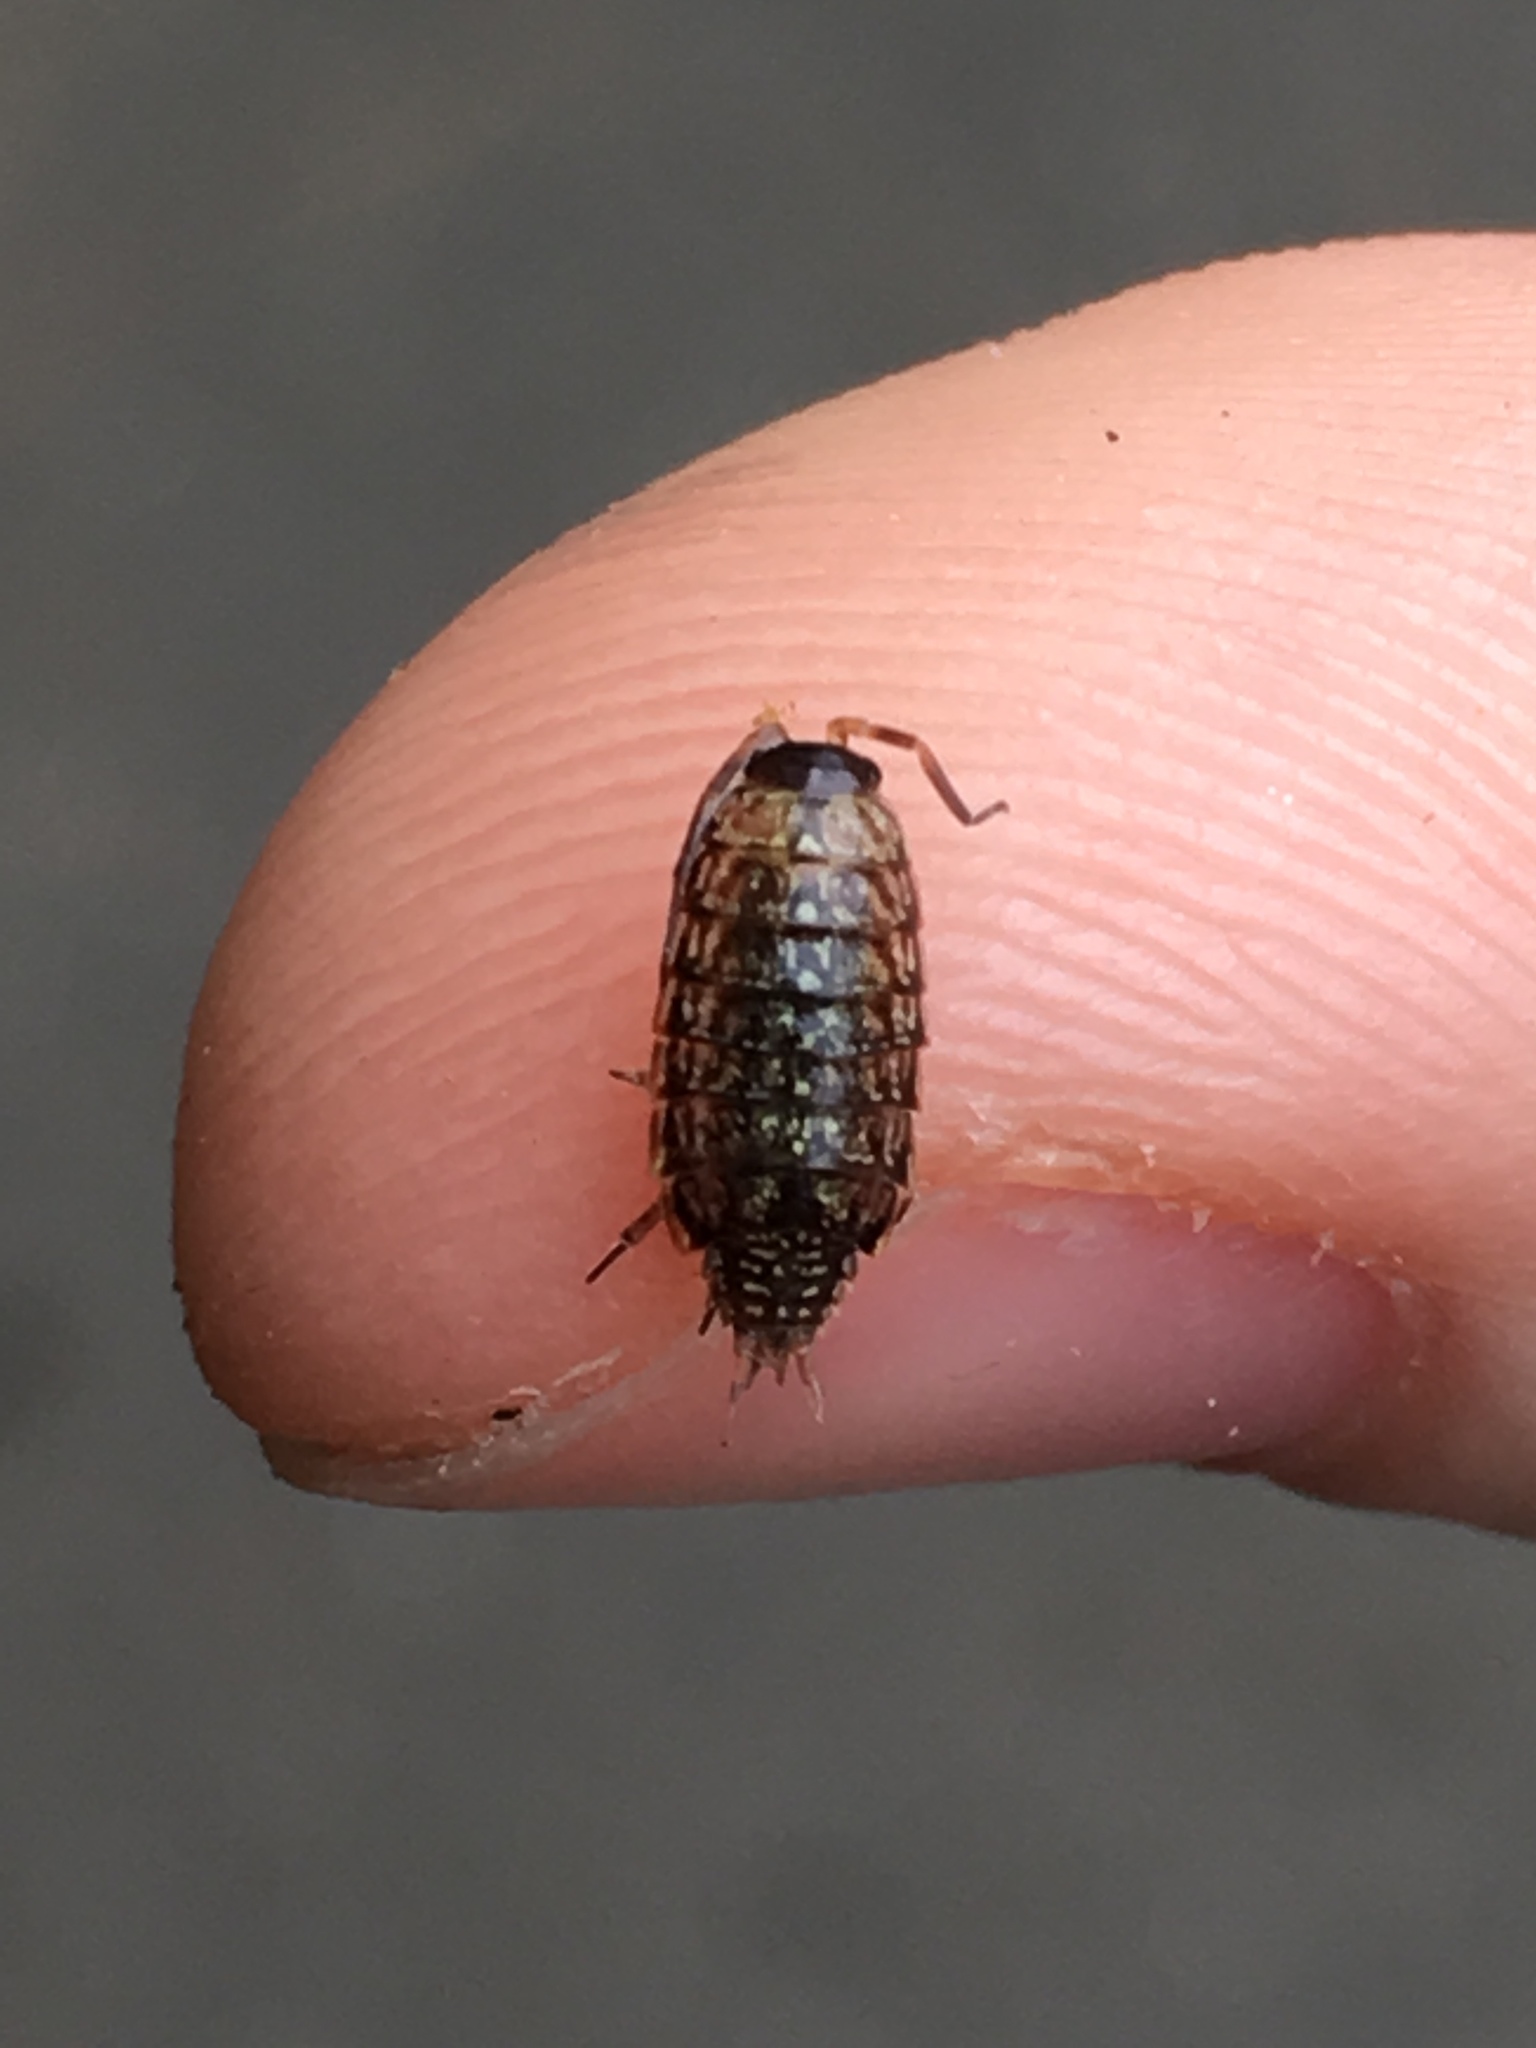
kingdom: Animalia
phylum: Arthropoda
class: Malacostraca
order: Isopoda
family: Philosciidae
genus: Philoscia
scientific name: Philoscia muscorum
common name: Common striped woodlouse
